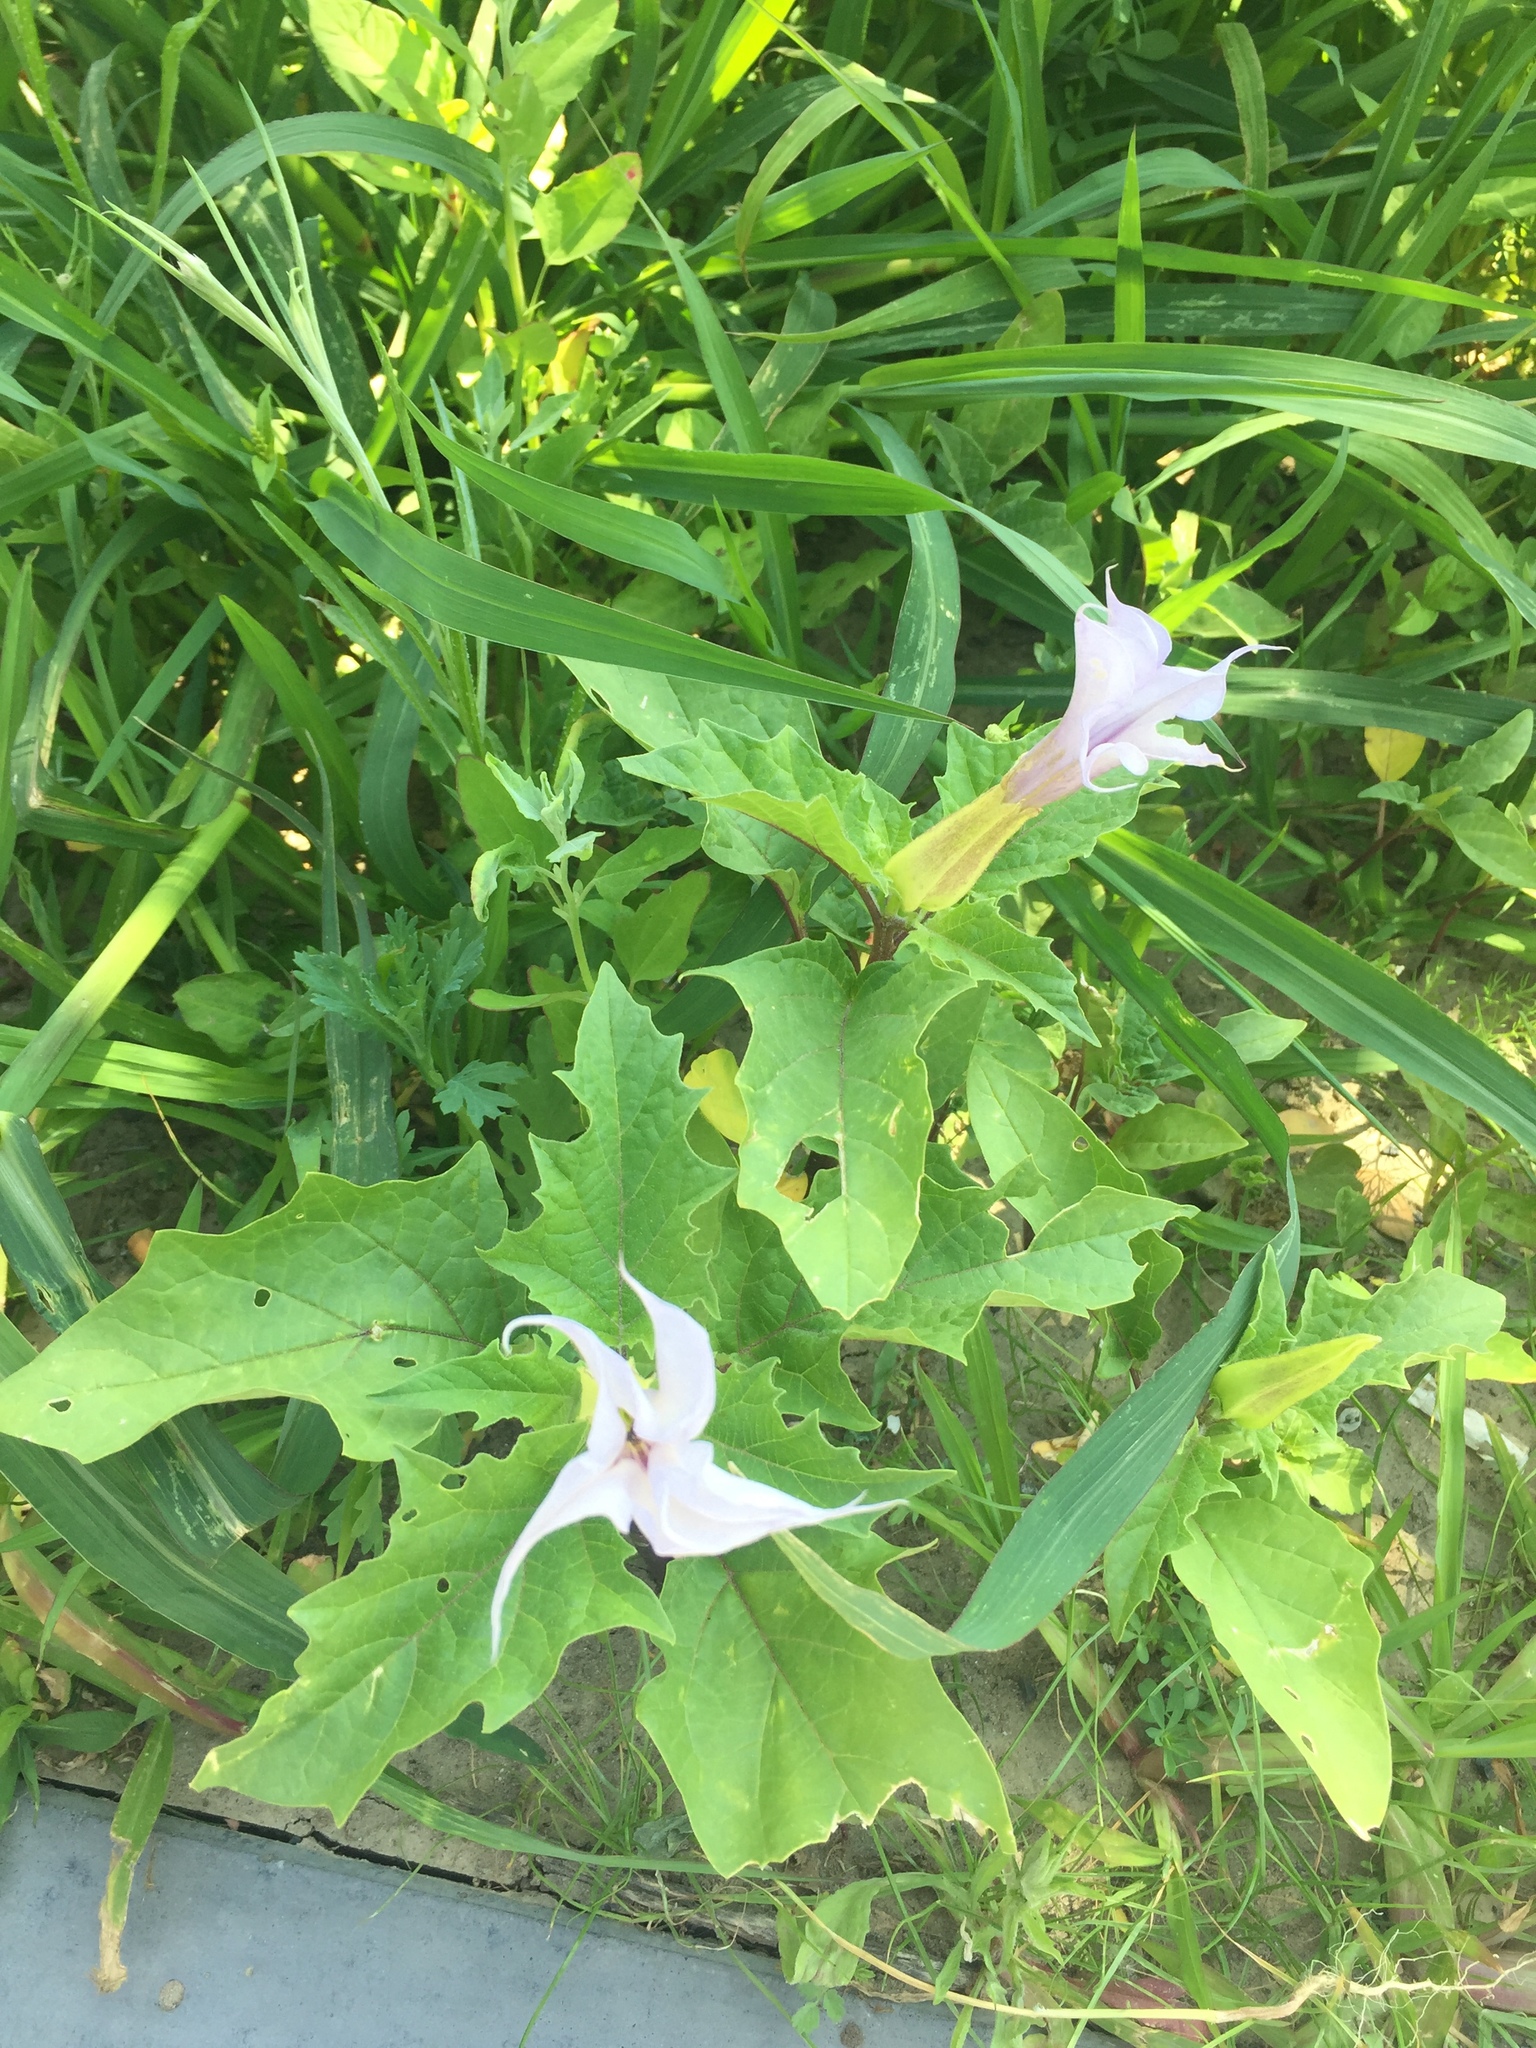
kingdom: Plantae
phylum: Tracheophyta
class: Magnoliopsida
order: Solanales
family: Solanaceae
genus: Datura
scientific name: Datura stramonium
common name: Thorn-apple
